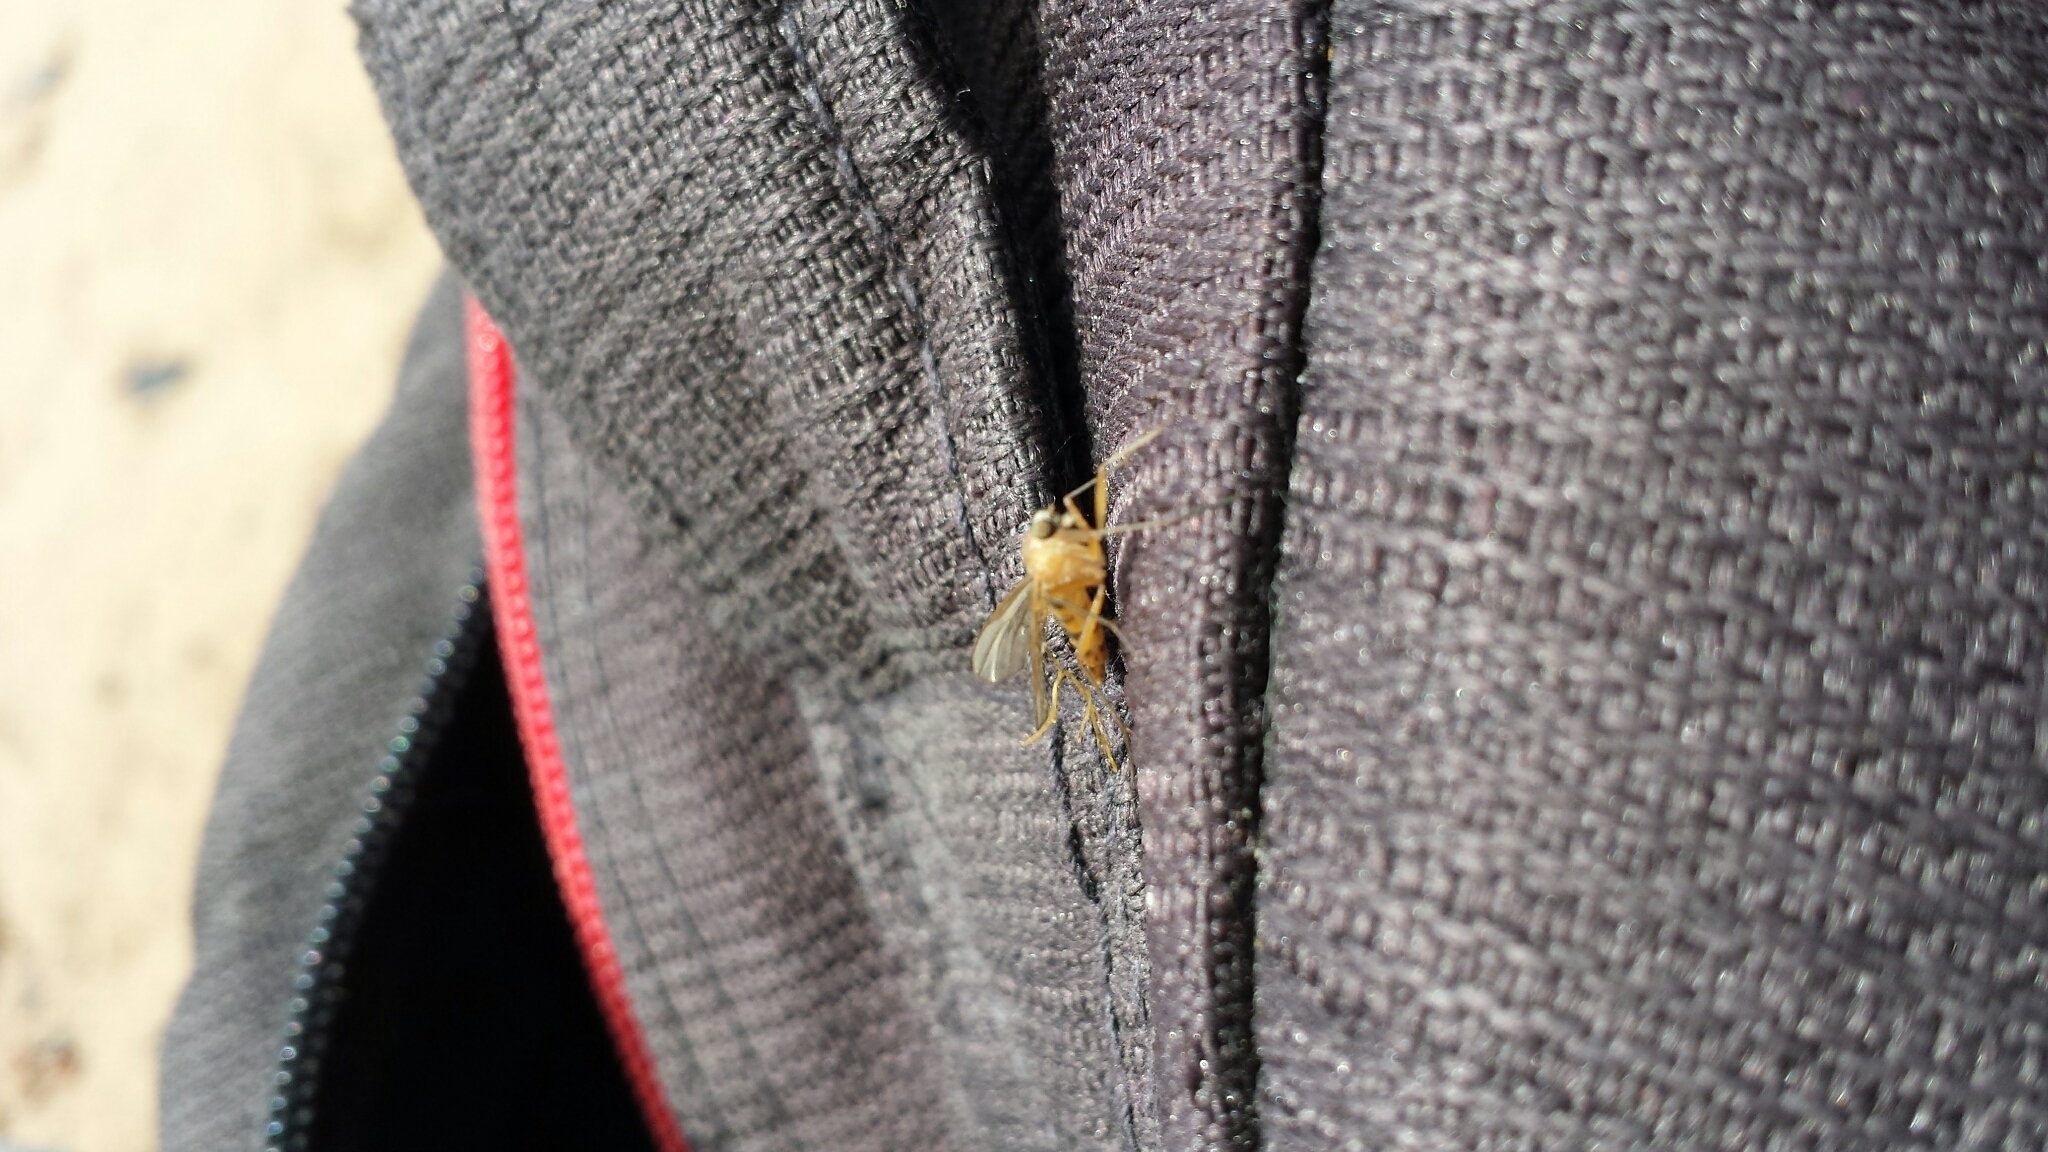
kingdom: Animalia
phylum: Arthropoda
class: Insecta
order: Diptera
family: Rhagionidae
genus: Rhagio
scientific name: Rhagio gracilis
